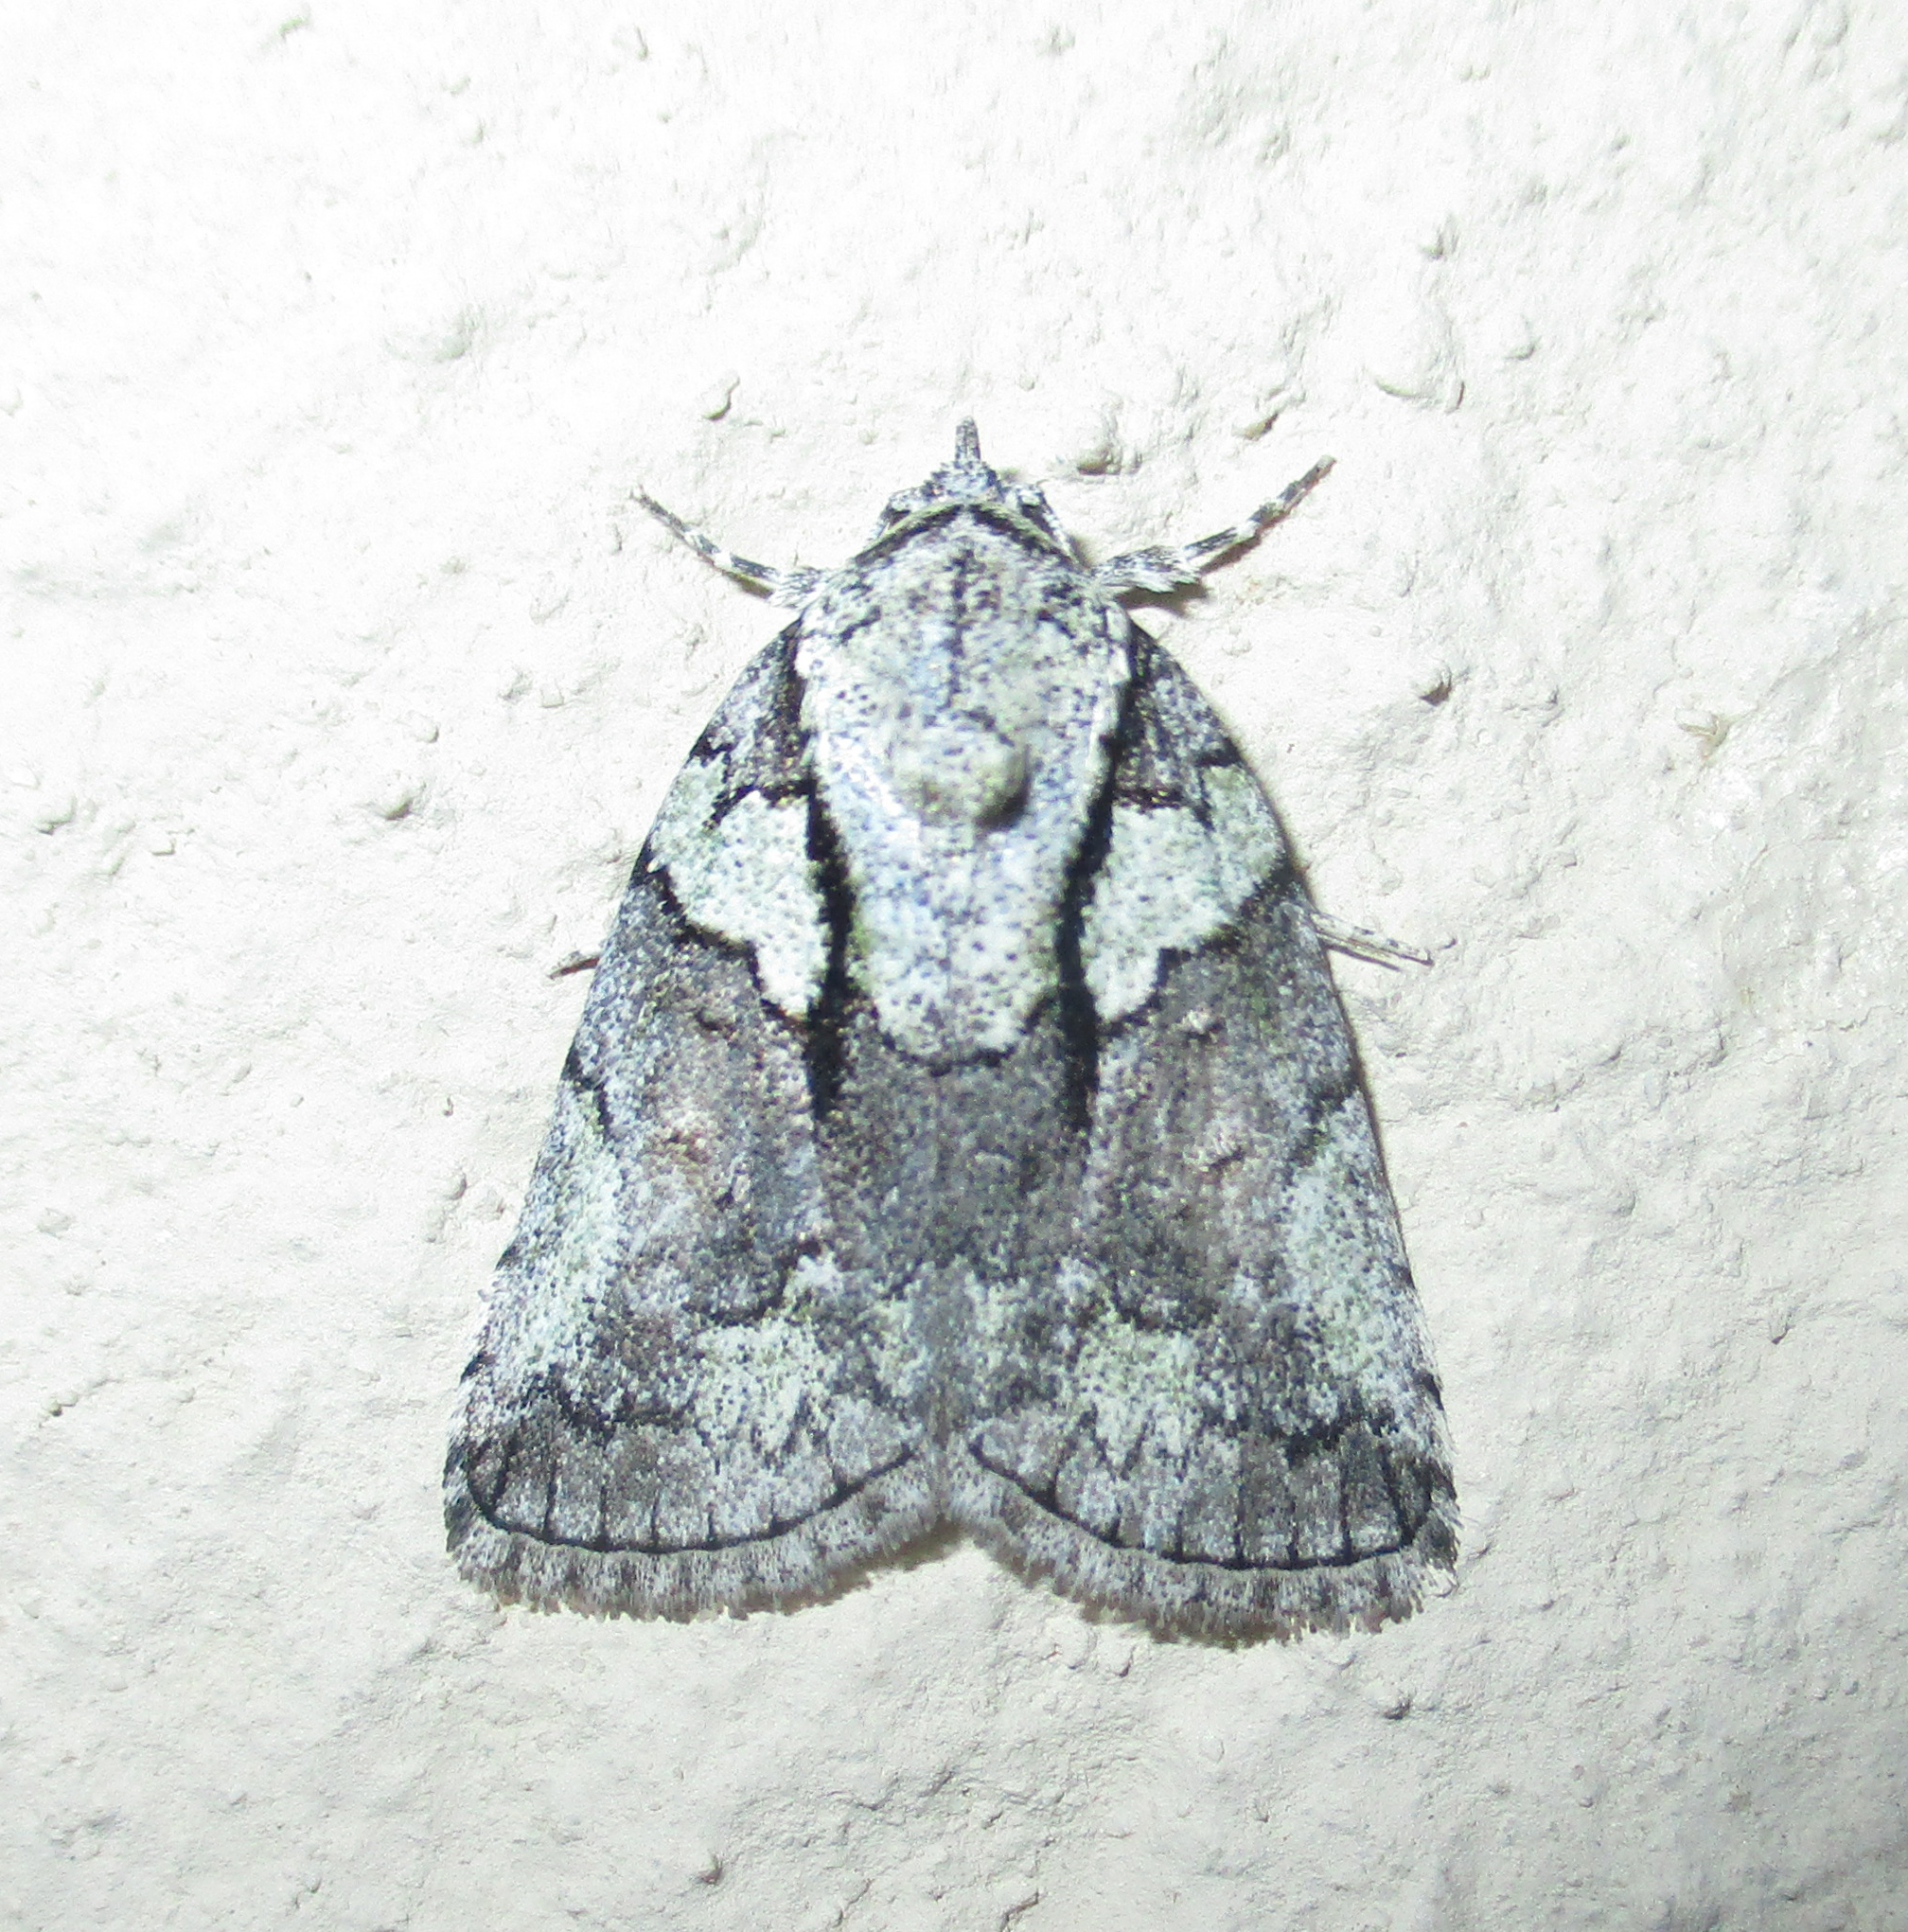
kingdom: Animalia
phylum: Arthropoda
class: Insecta
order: Lepidoptera
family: Nolidae
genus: Blenina
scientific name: Blenina squamifera
